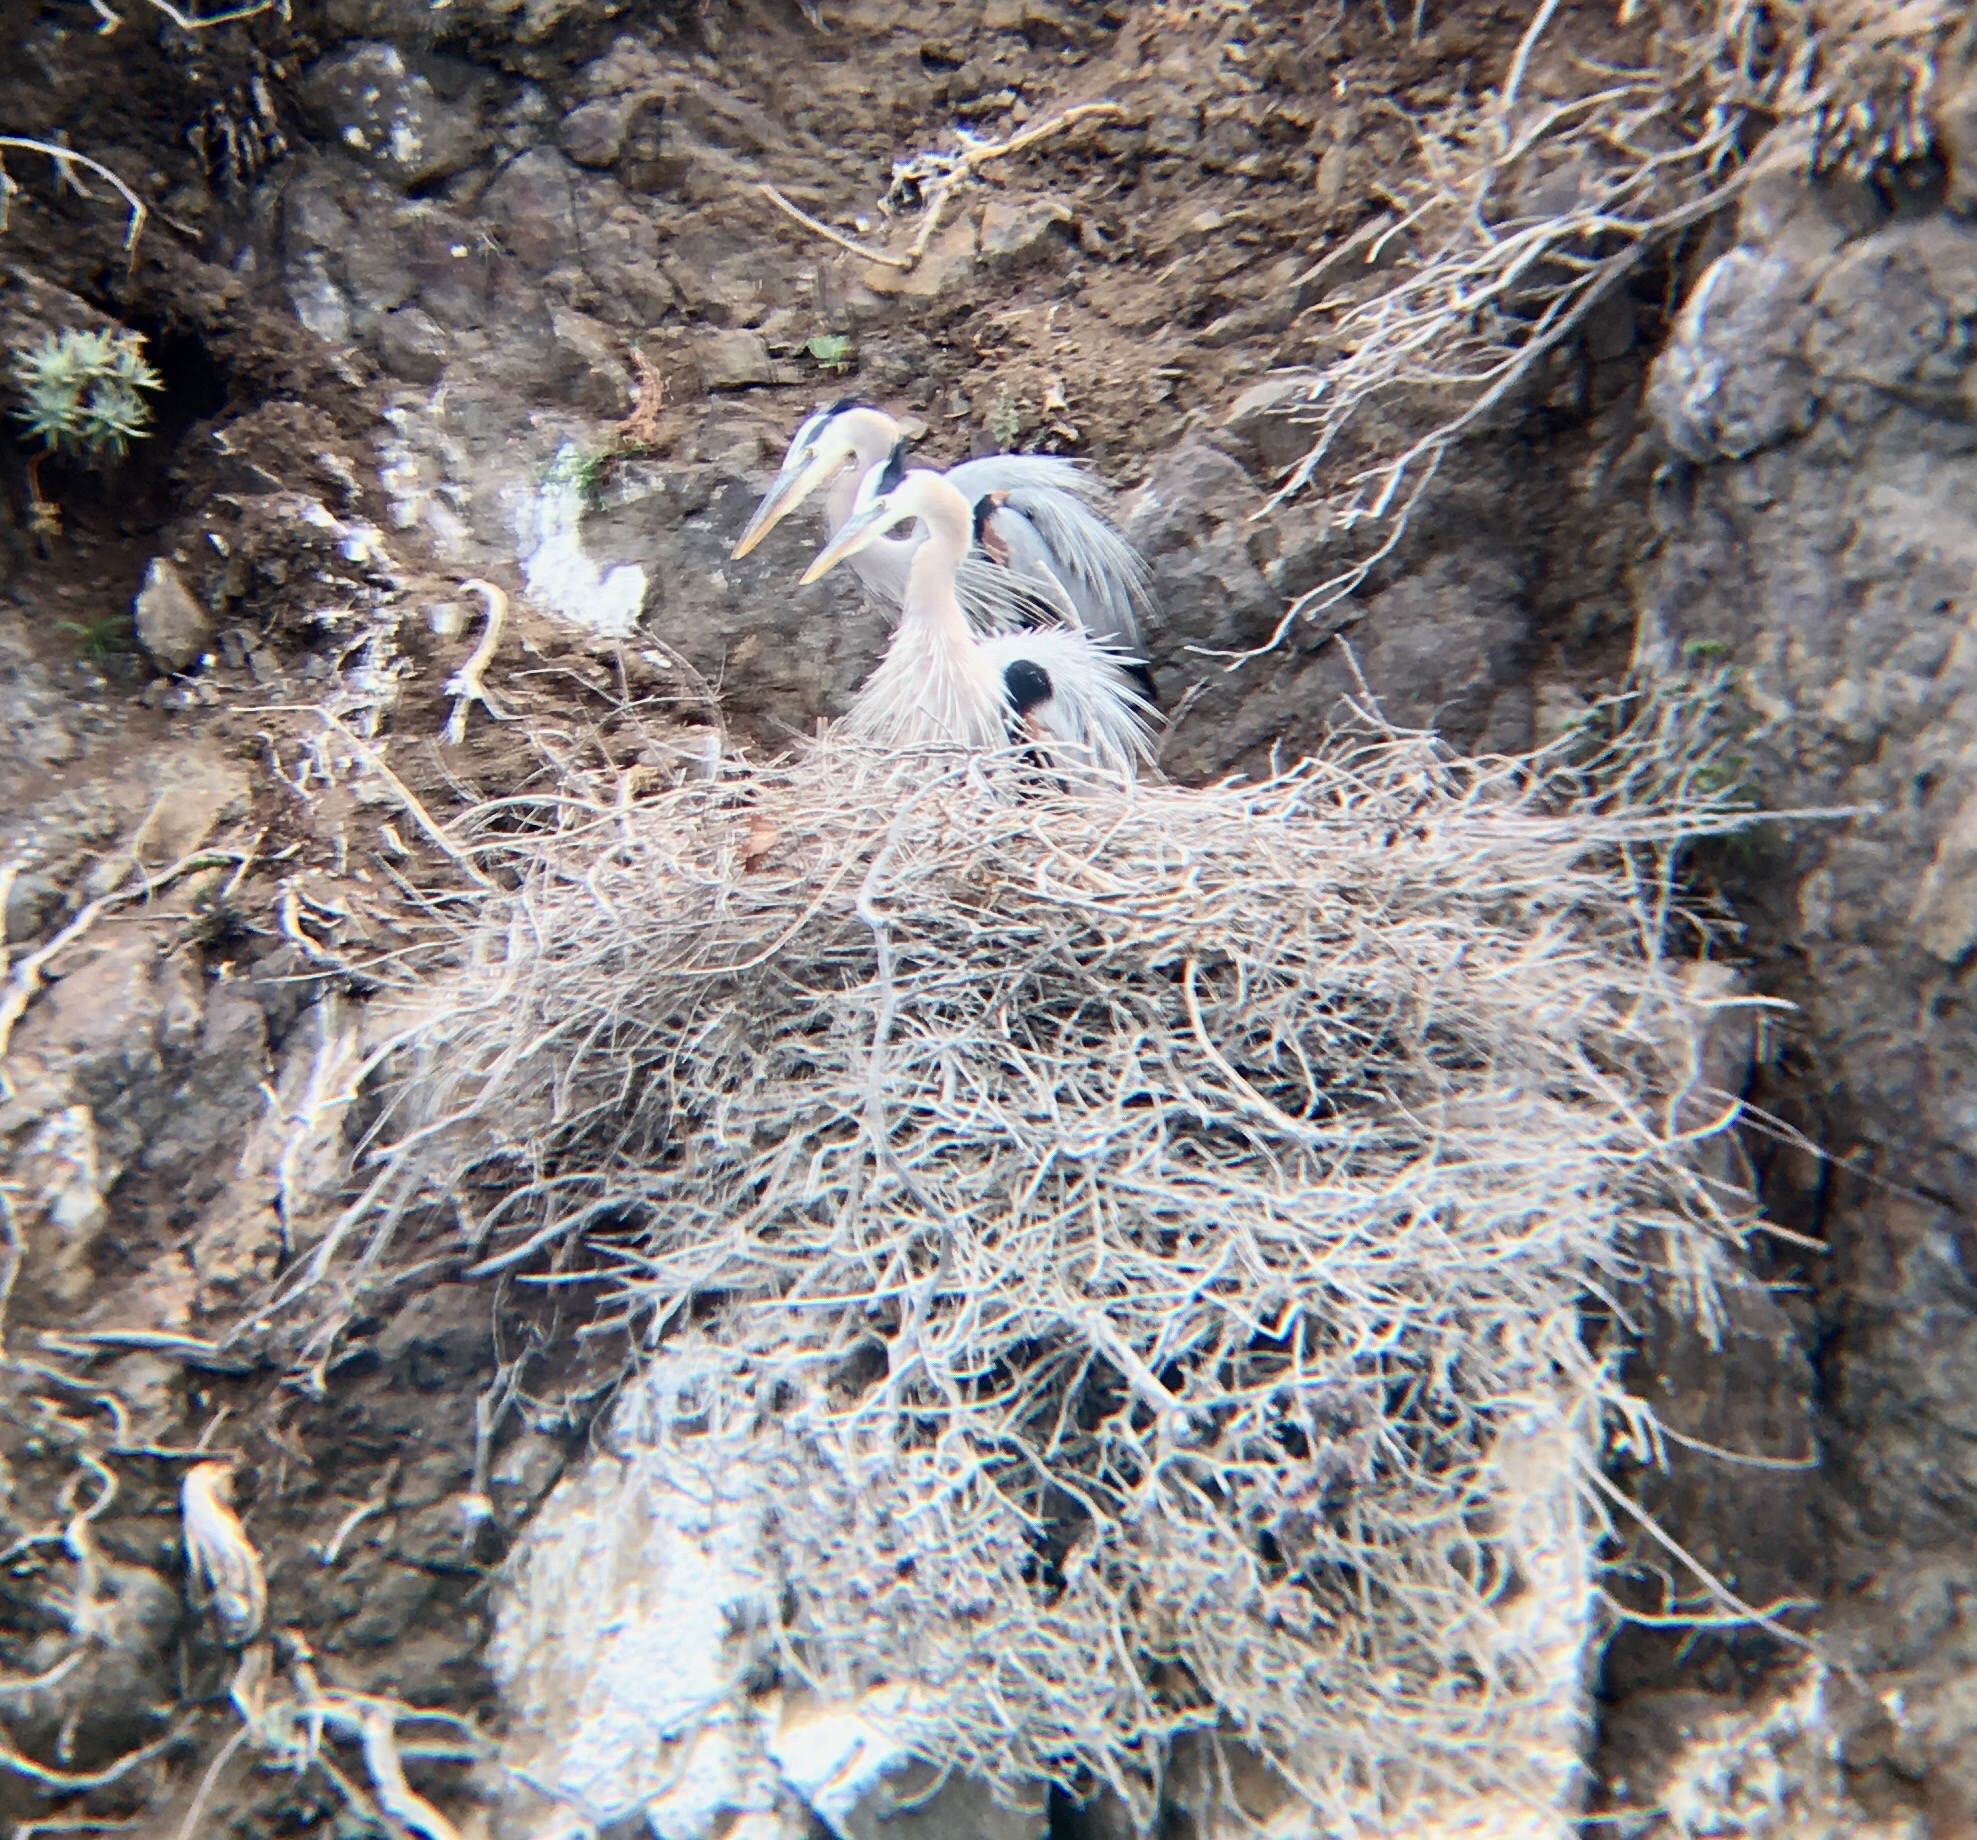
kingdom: Animalia
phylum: Chordata
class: Aves
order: Pelecaniformes
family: Ardeidae
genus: Ardea
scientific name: Ardea herodias
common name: Great blue heron
